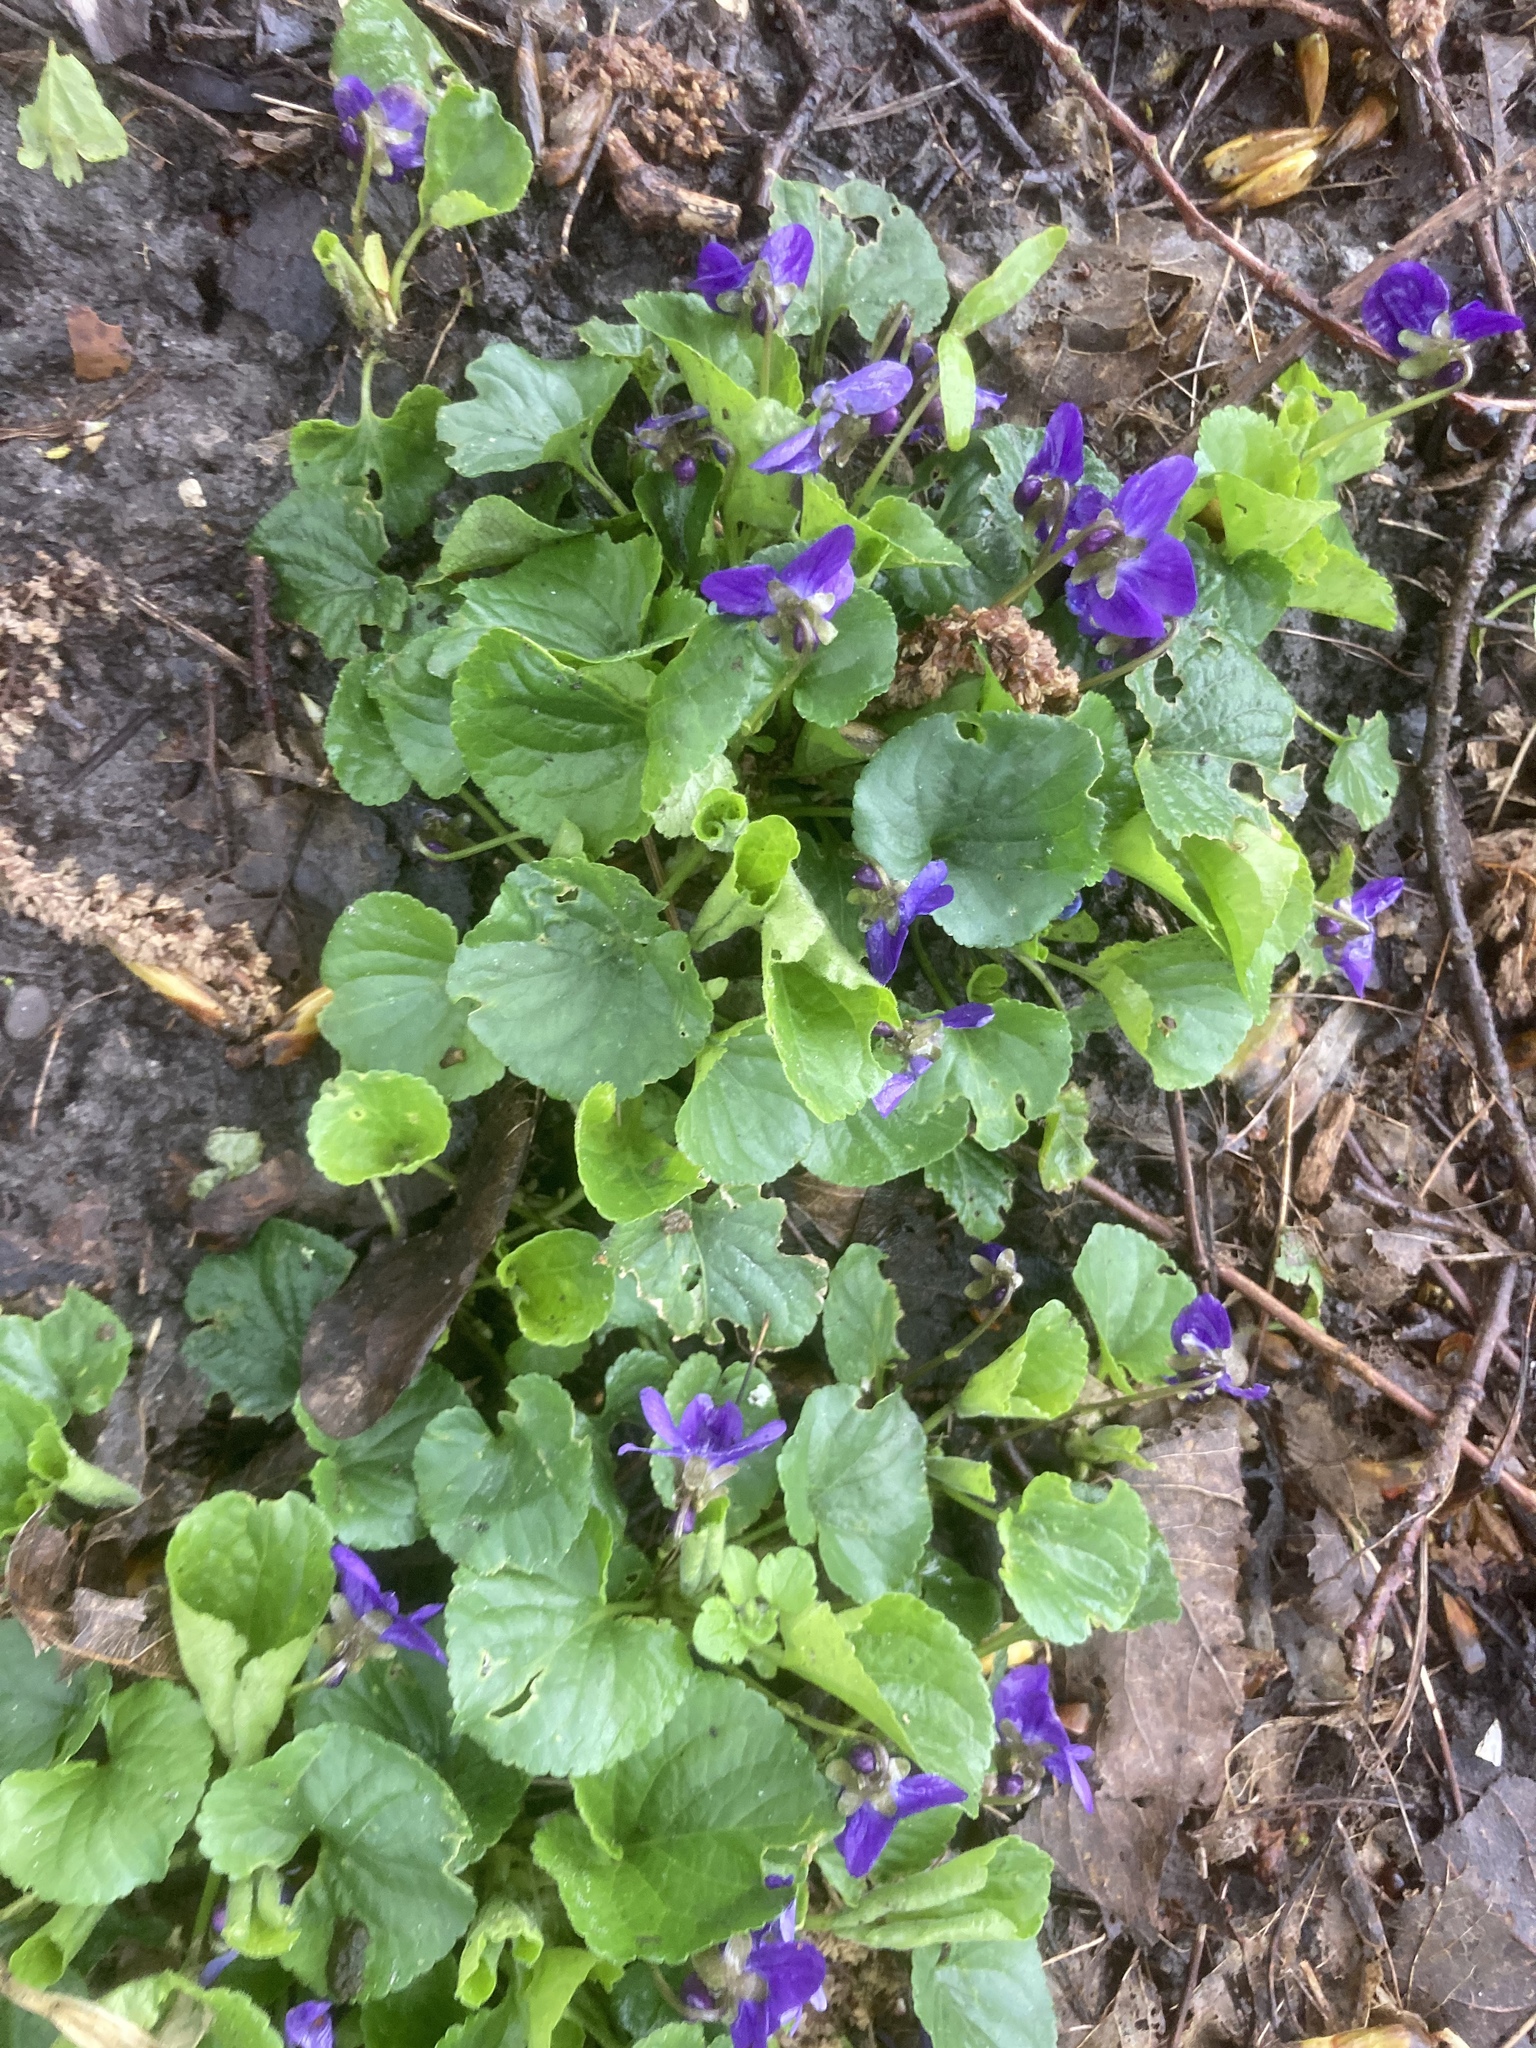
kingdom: Plantae
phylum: Tracheophyta
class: Magnoliopsida
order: Malpighiales
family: Violaceae
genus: Viola
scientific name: Viola odorata
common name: Sweet violet
